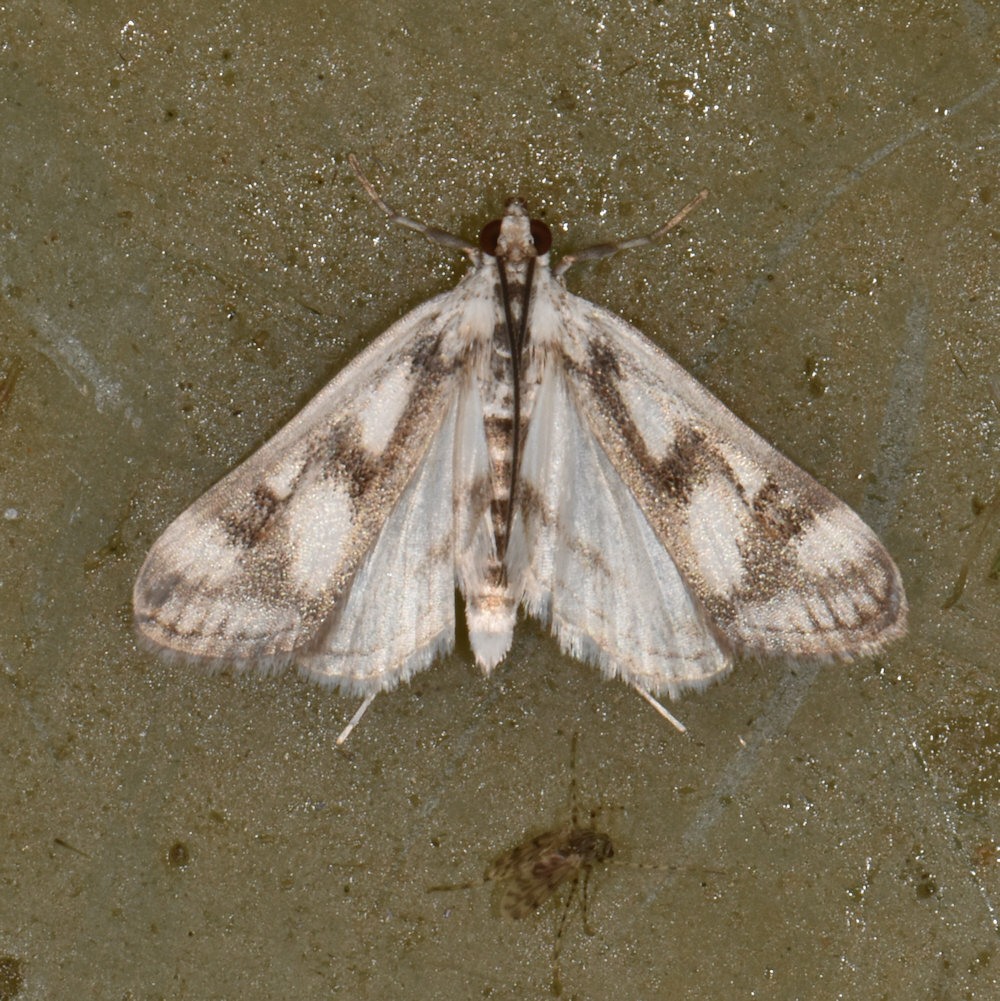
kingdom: Animalia
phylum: Arthropoda
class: Insecta
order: Lepidoptera
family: Crambidae
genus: Parapoynx
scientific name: Parapoynx maculalis
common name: Polymorphic pondweed moth
